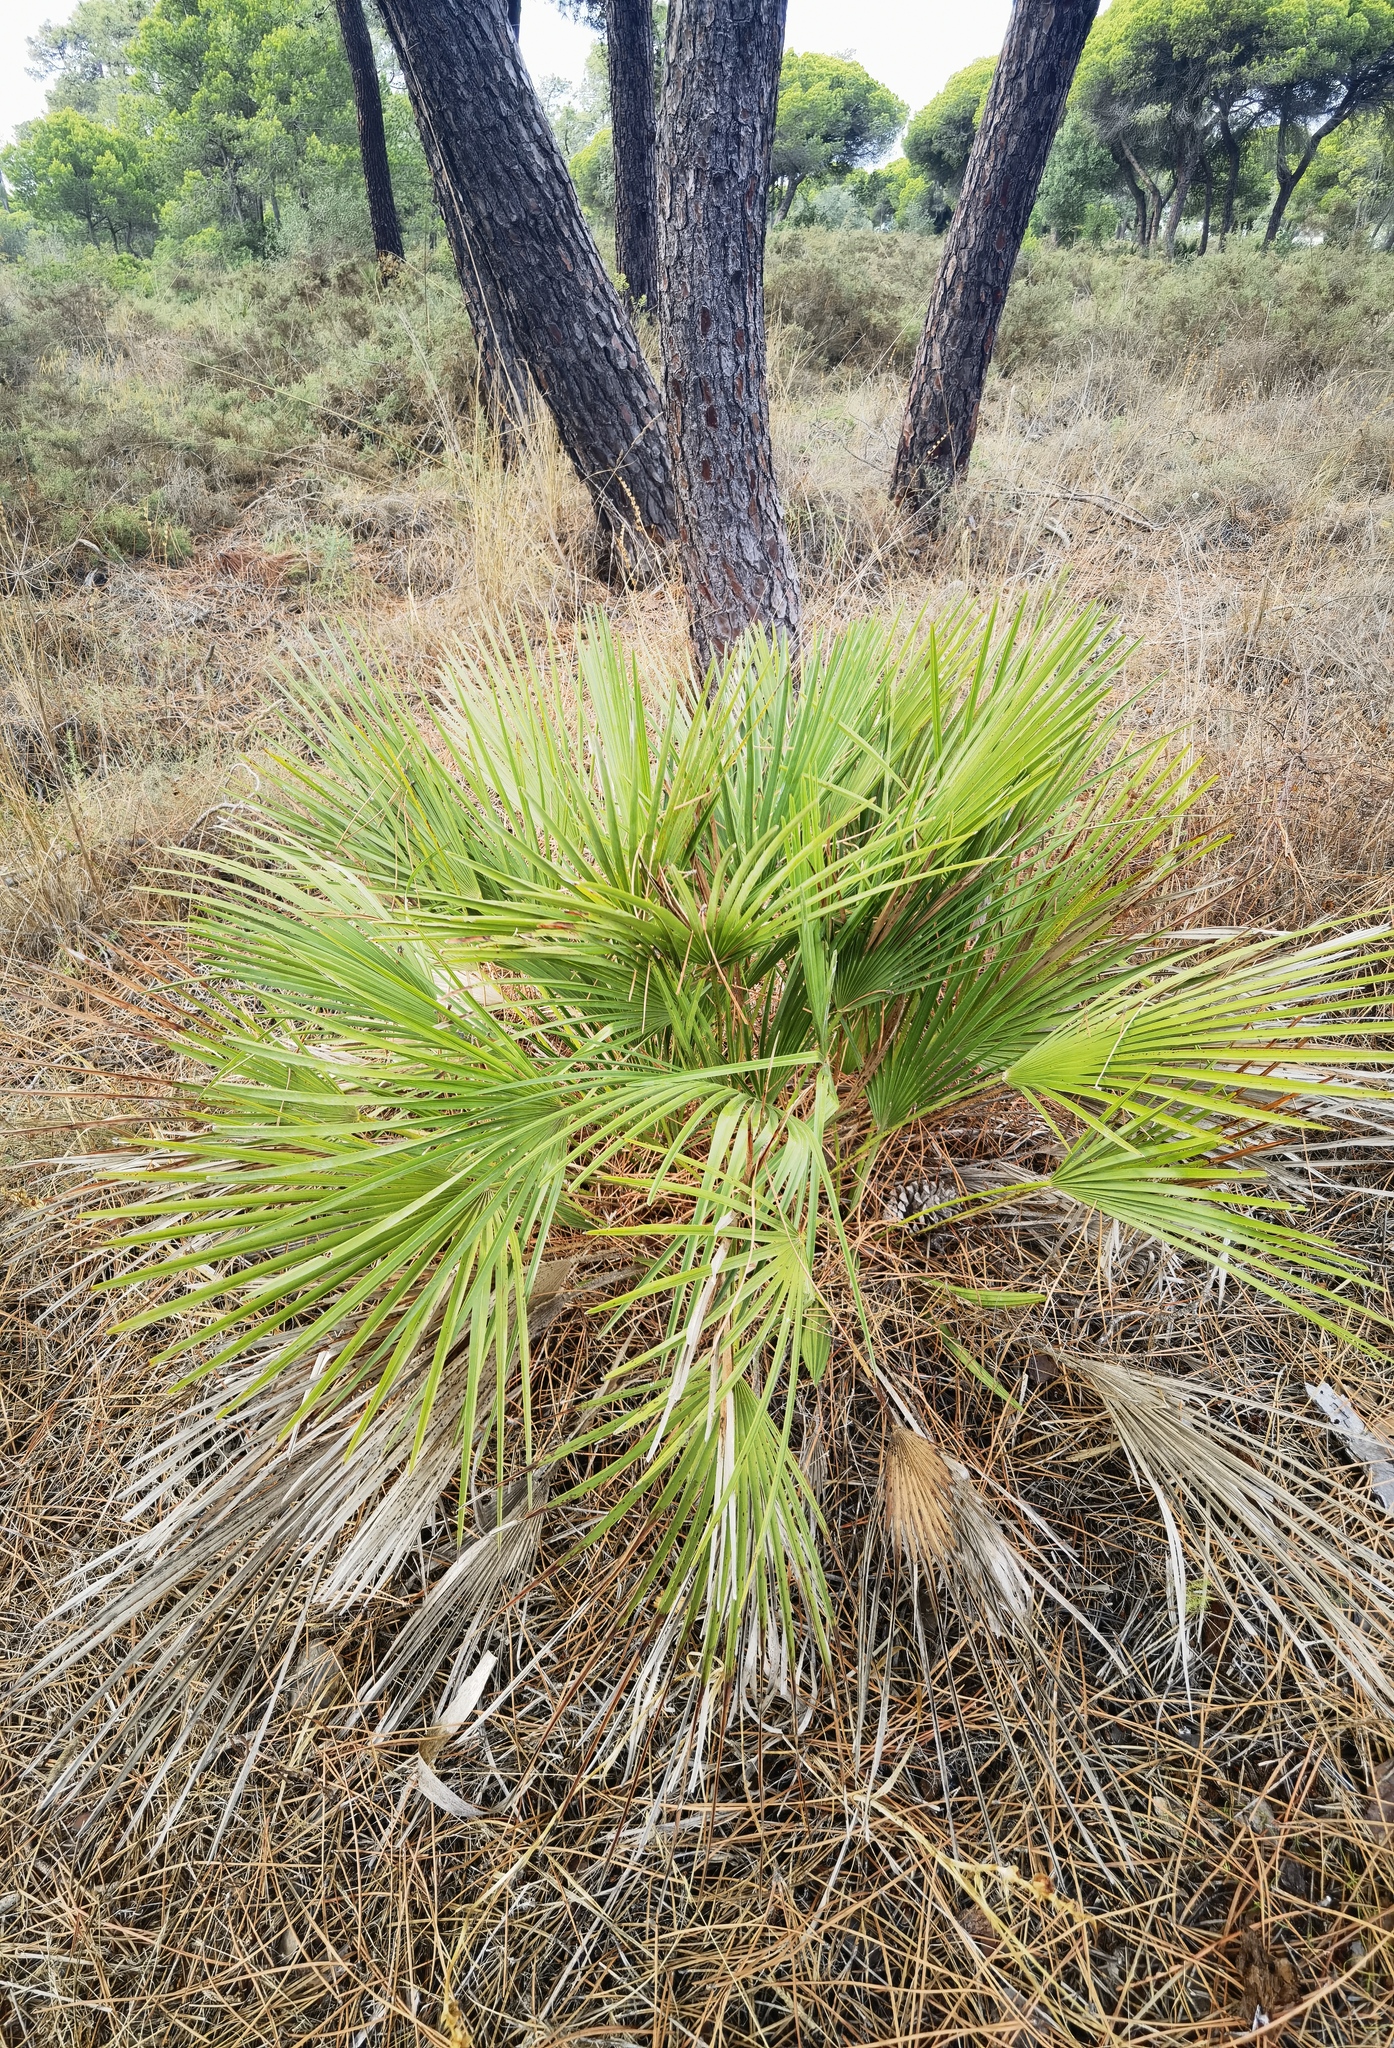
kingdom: Plantae
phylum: Tracheophyta
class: Liliopsida
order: Arecales
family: Arecaceae
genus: Chamaerops
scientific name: Chamaerops humilis
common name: Dwarf fan palm
